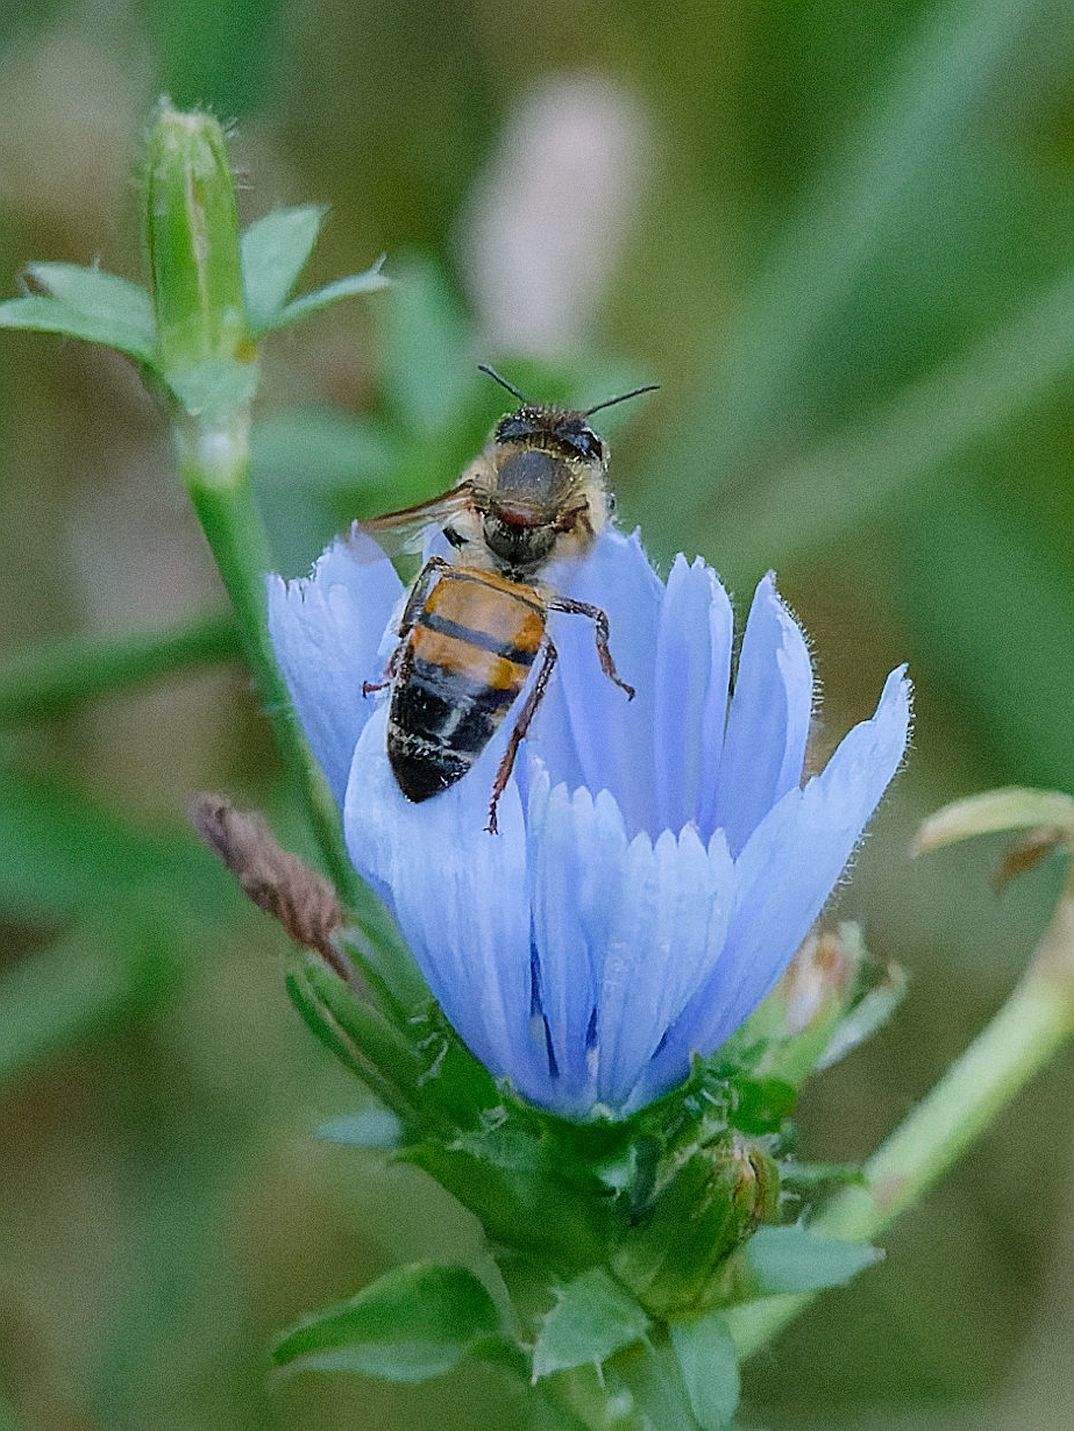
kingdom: Animalia
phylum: Arthropoda
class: Insecta
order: Hymenoptera
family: Apidae
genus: Apis
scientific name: Apis mellifera
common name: Honey bee
